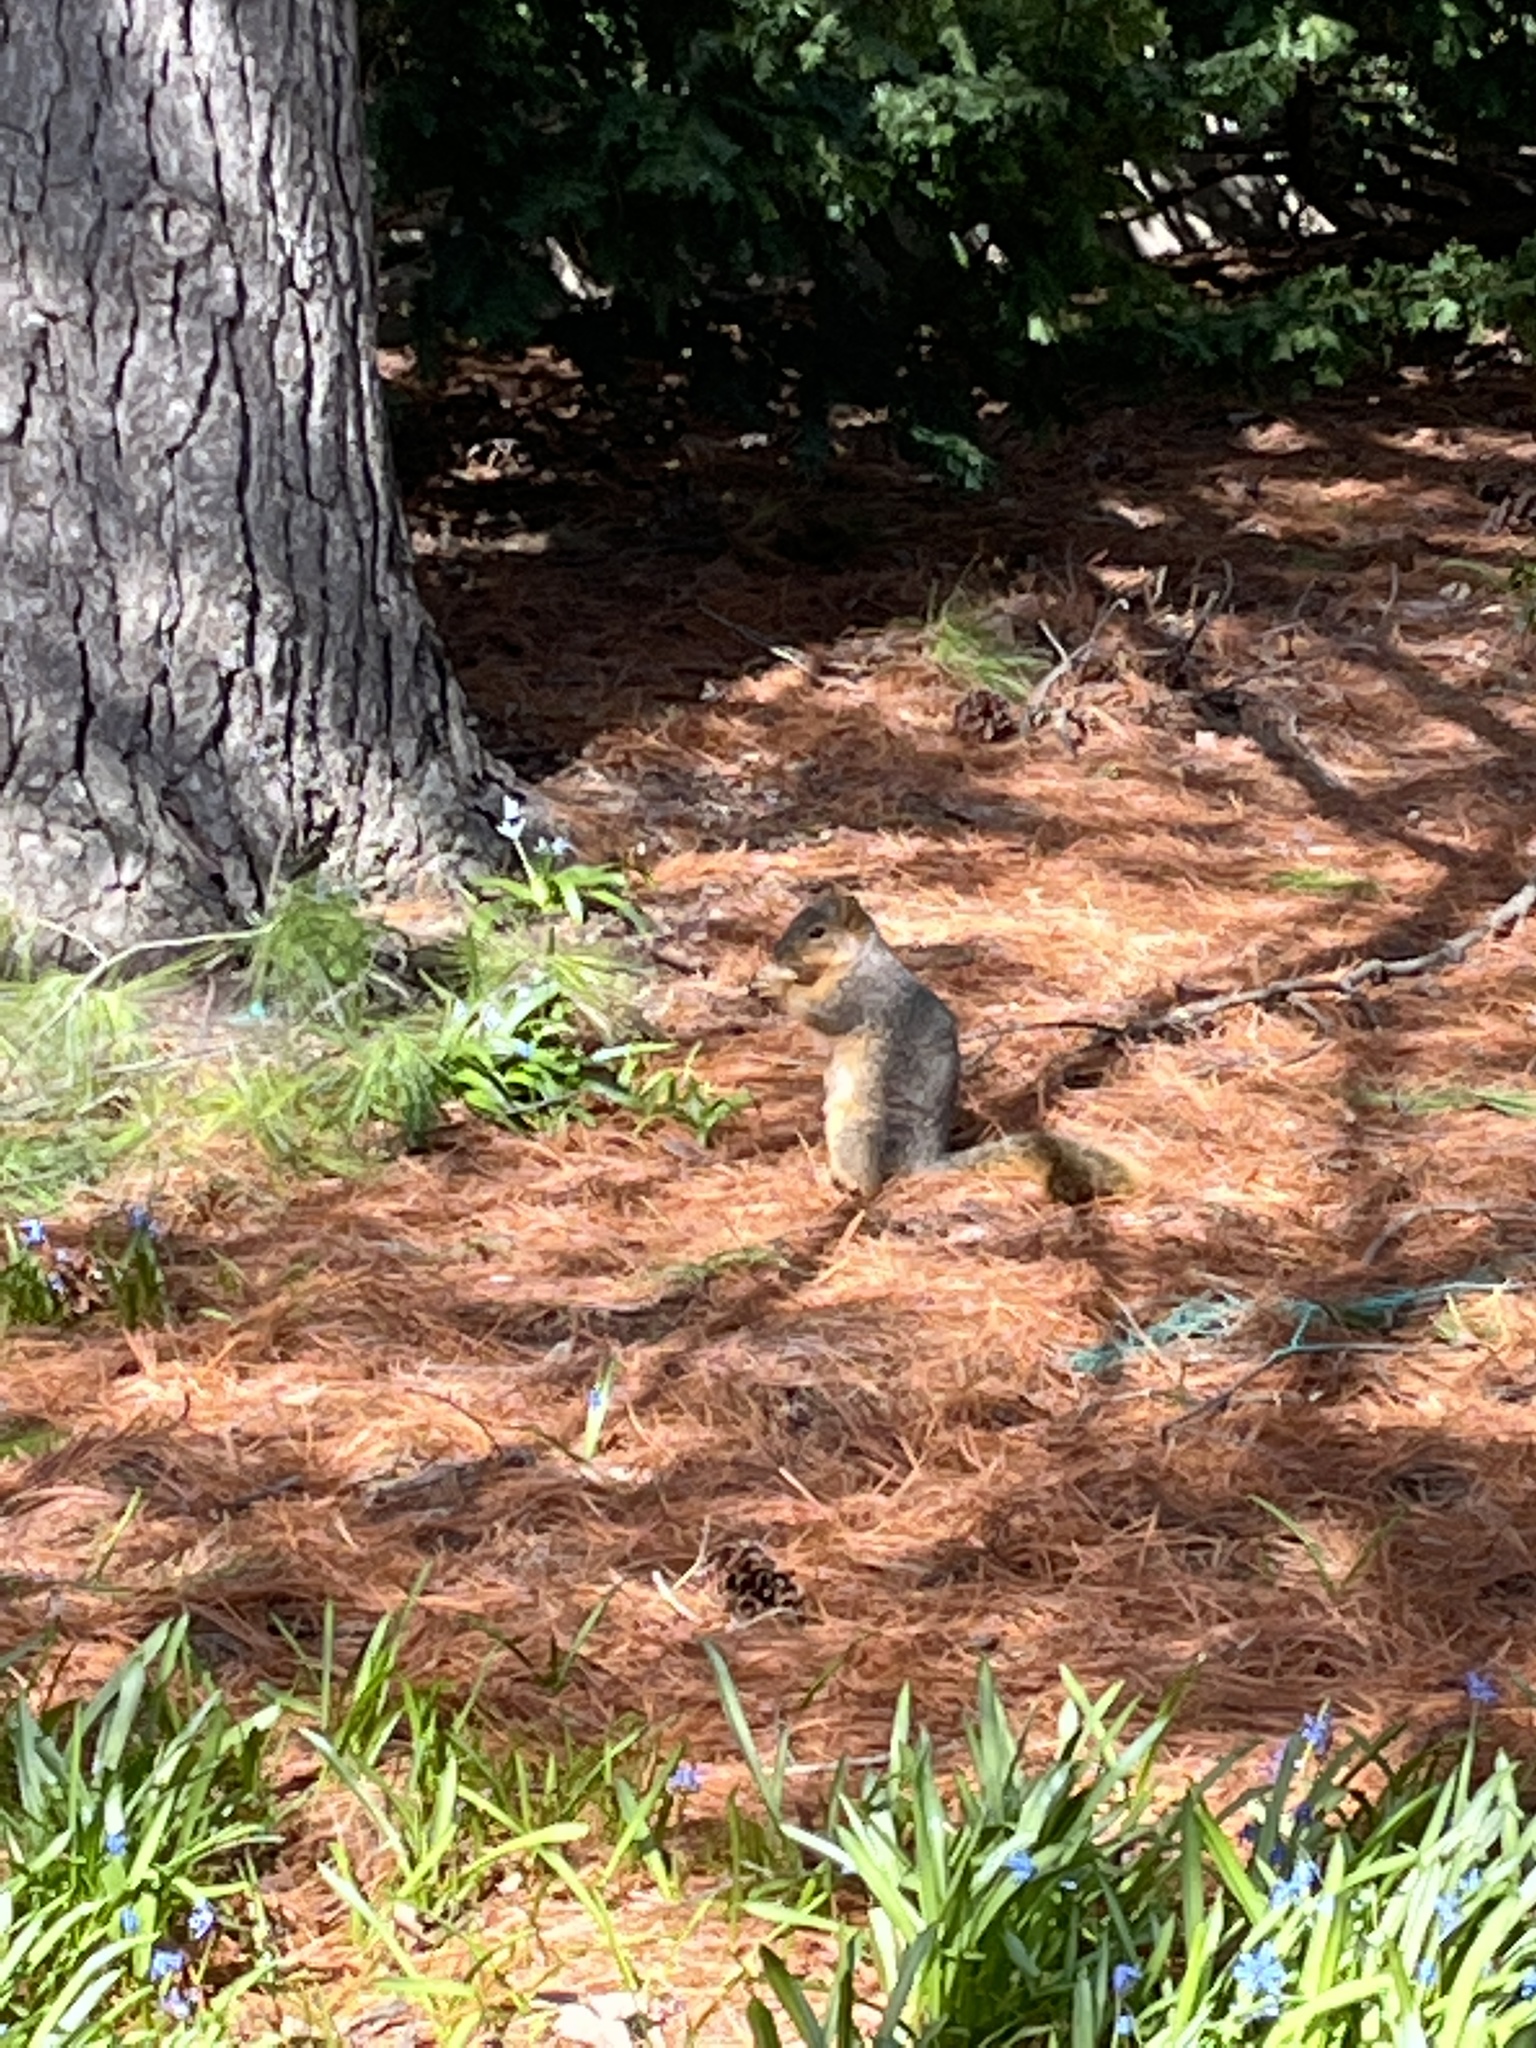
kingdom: Animalia
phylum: Chordata
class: Mammalia
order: Rodentia
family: Sciuridae
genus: Sciurus
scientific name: Sciurus niger
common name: Fox squirrel
